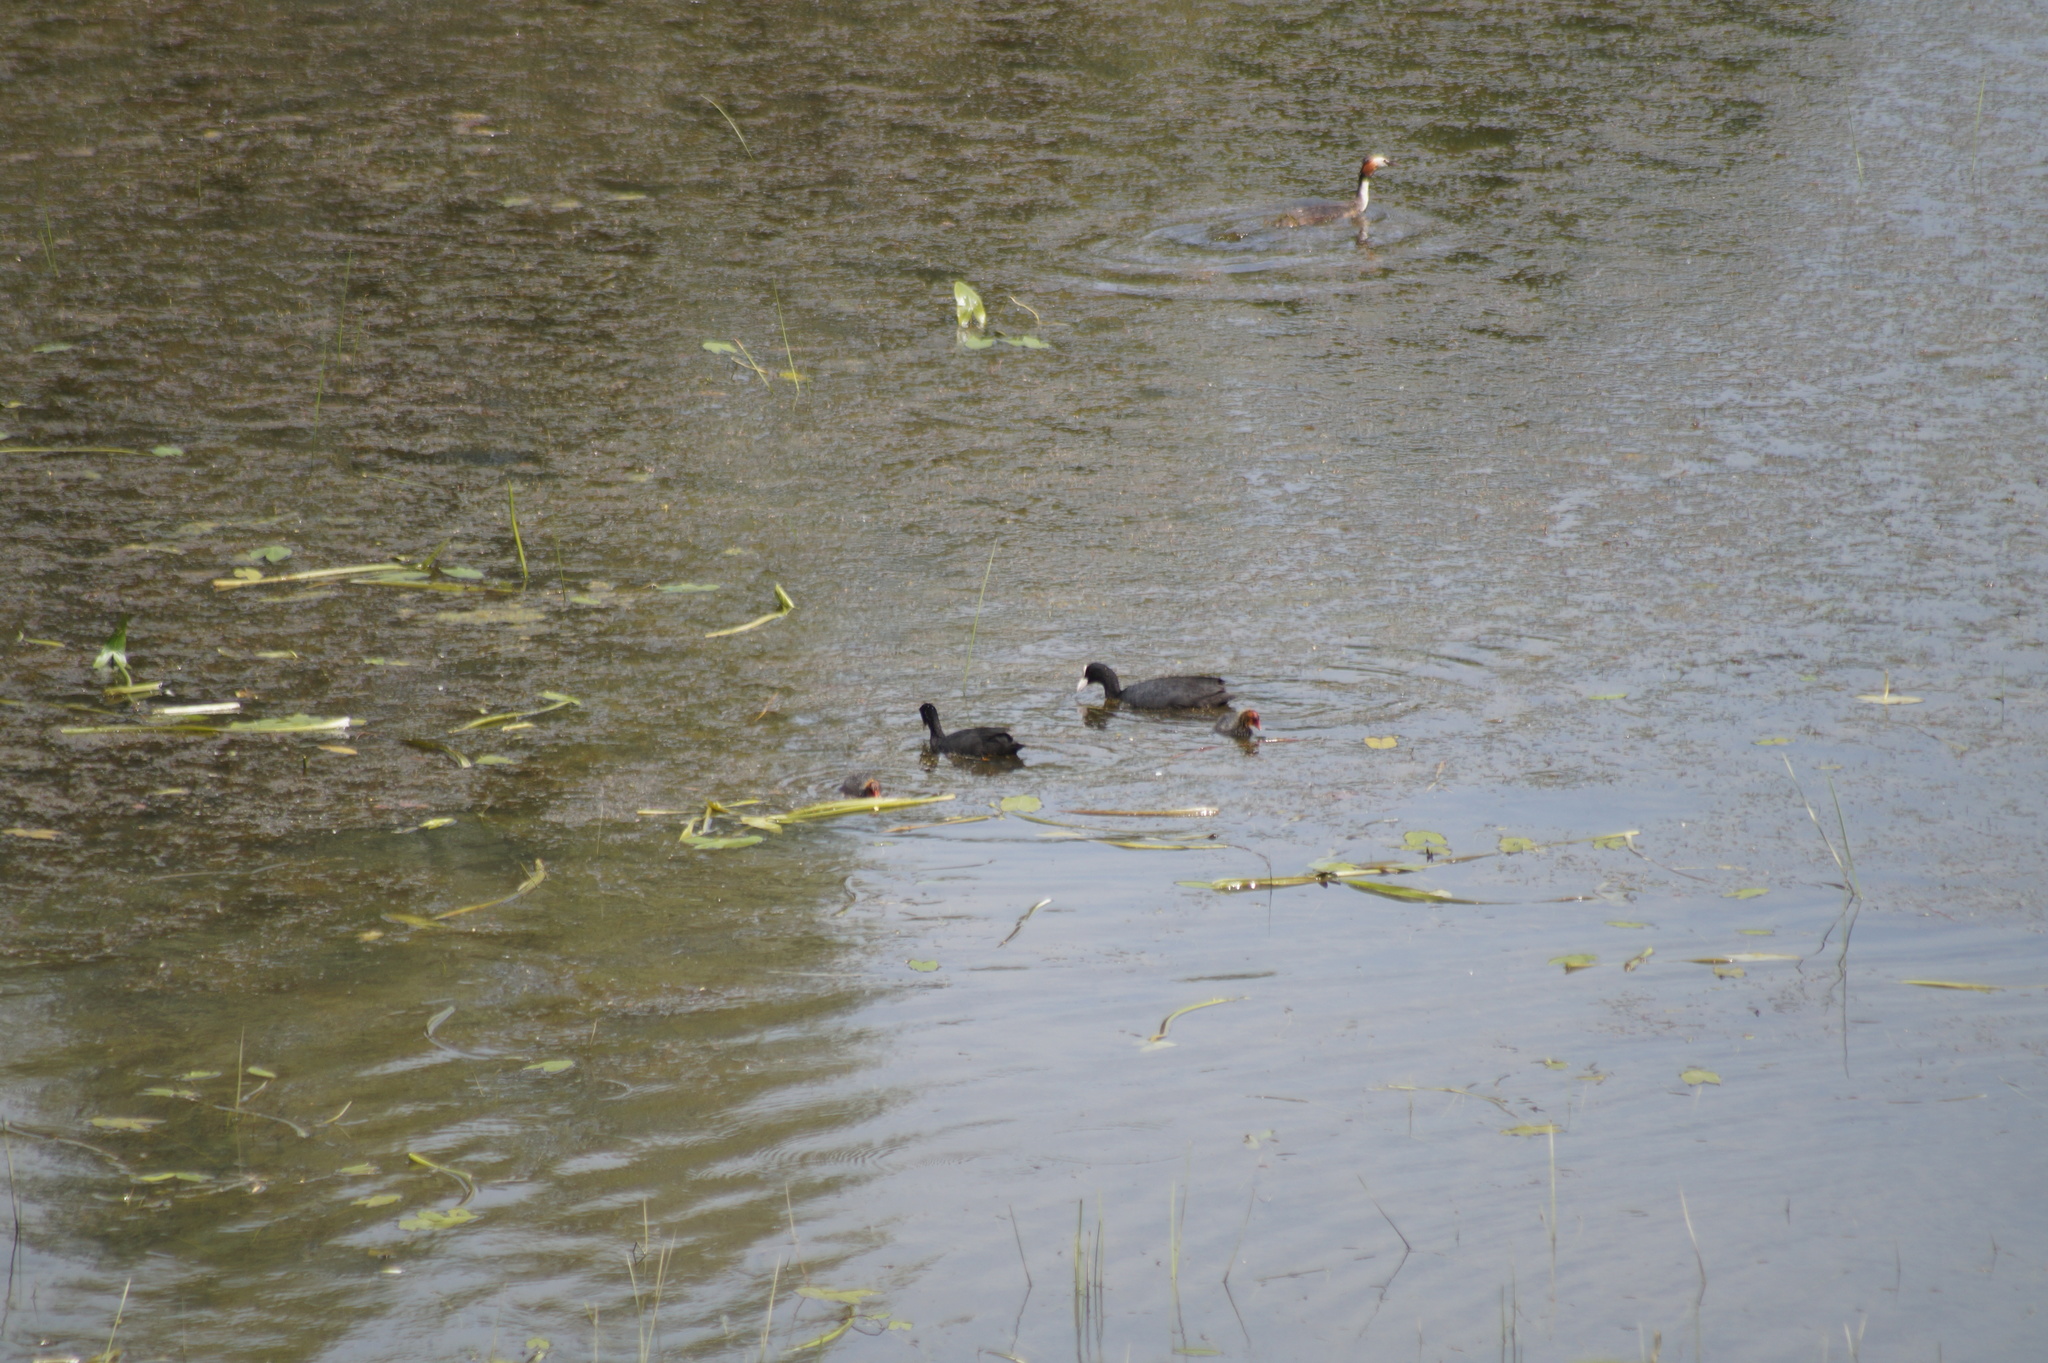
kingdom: Animalia
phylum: Chordata
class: Aves
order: Gruiformes
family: Rallidae
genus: Fulica
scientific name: Fulica atra
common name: Eurasian coot
